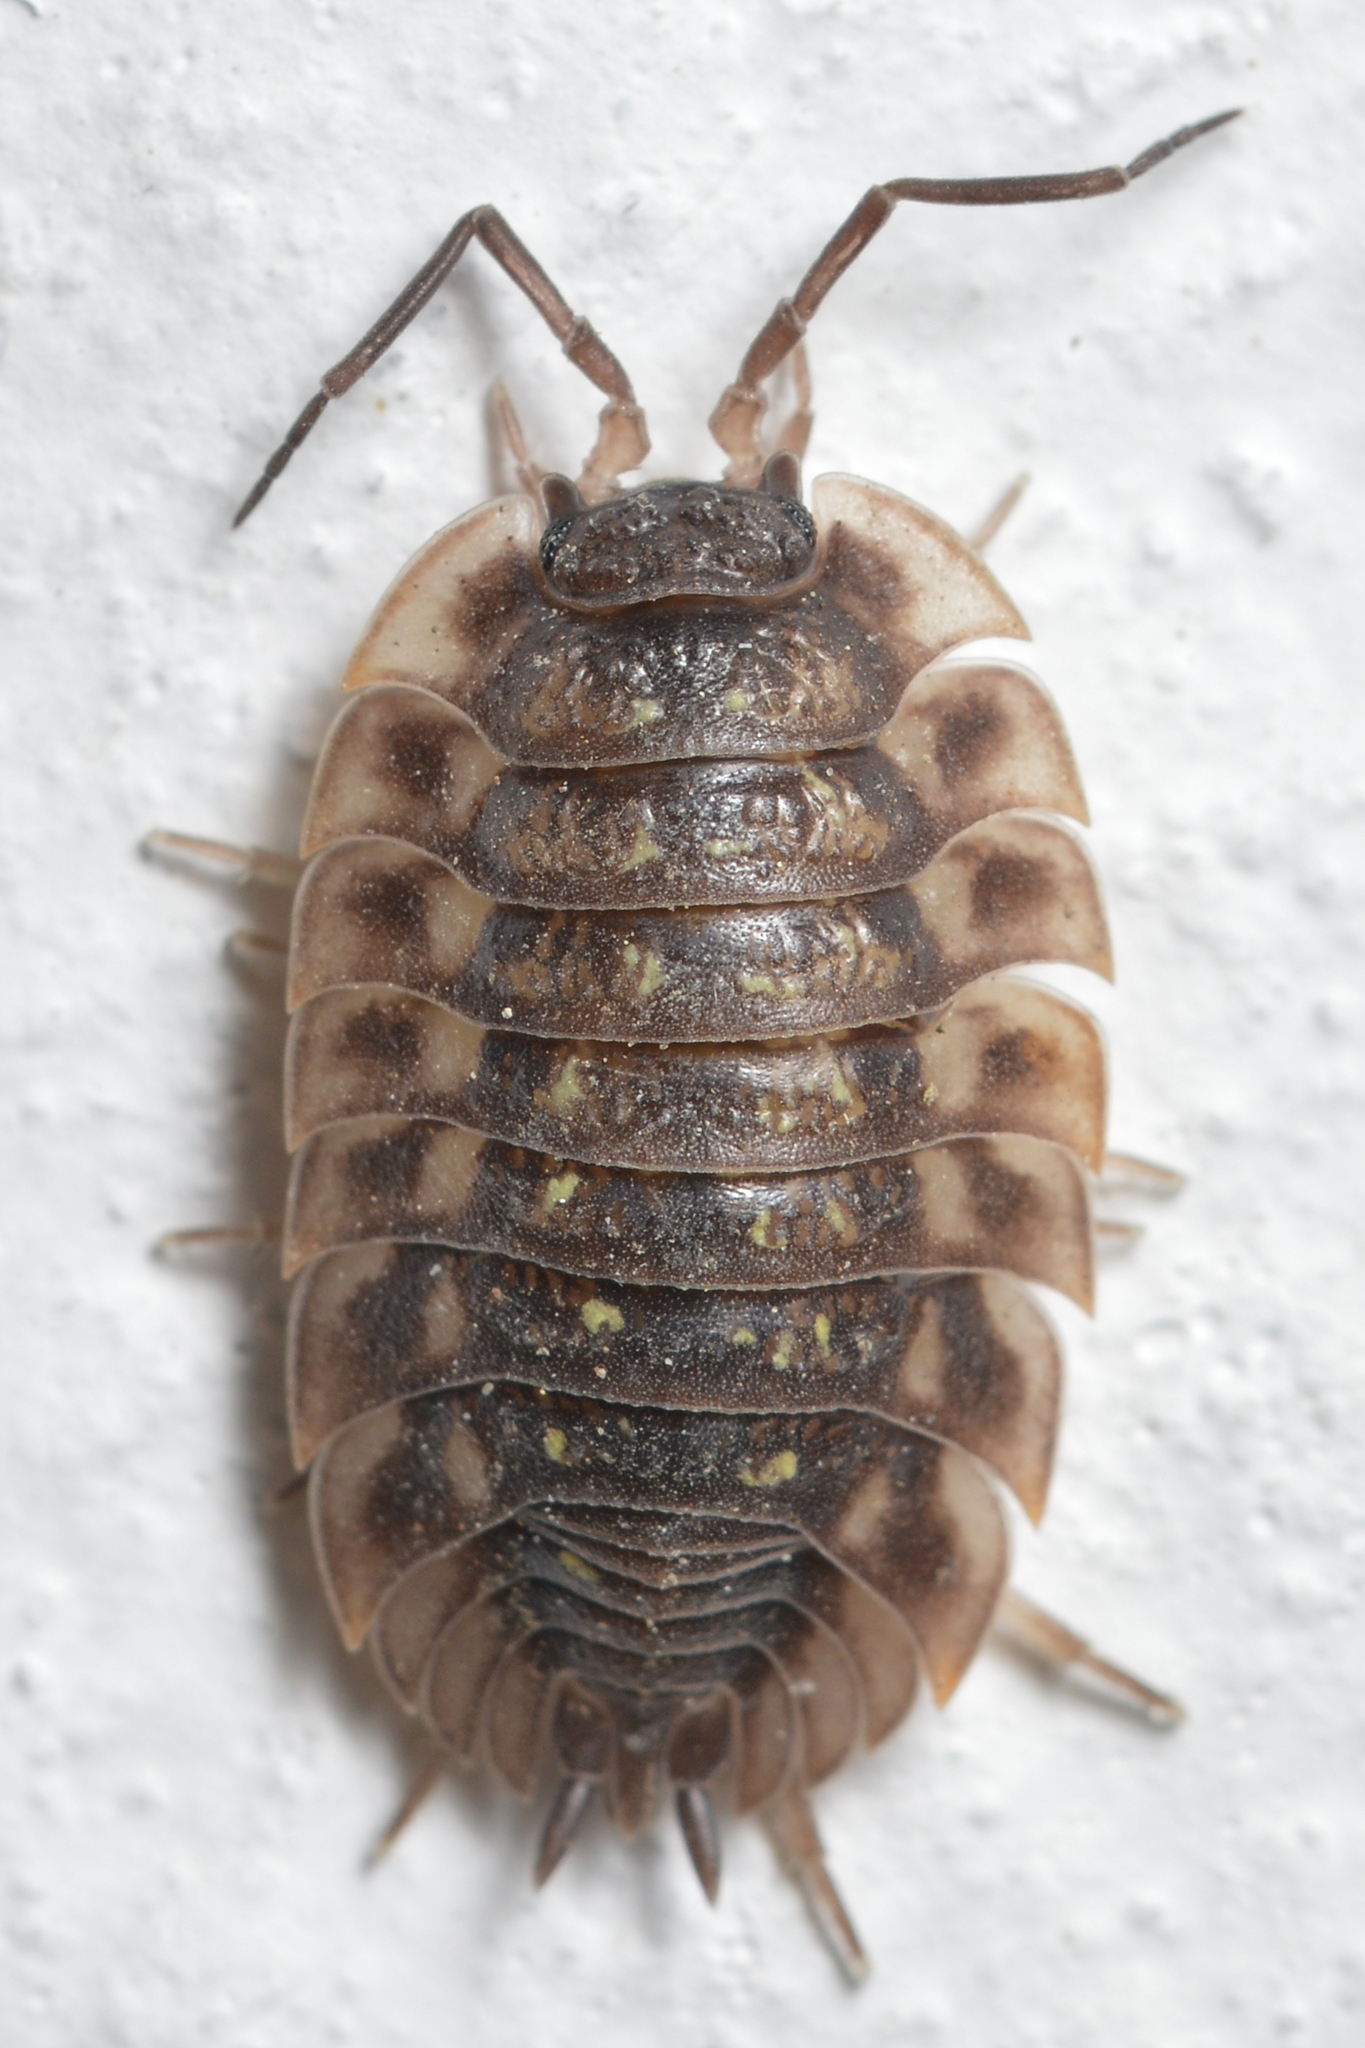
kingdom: Animalia
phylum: Arthropoda
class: Malacostraca
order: Isopoda
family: Oniscidae
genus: Oniscus
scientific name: Oniscus asellus
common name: Common shiny woodlouse
